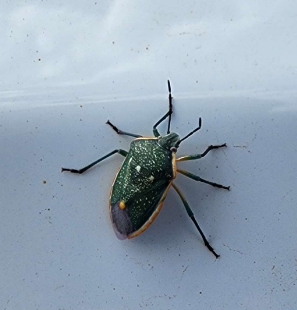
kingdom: Animalia
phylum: Arthropoda
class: Insecta
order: Hemiptera
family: Pentatomidae
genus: Chlorochroa
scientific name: Chlorochroa sayi
